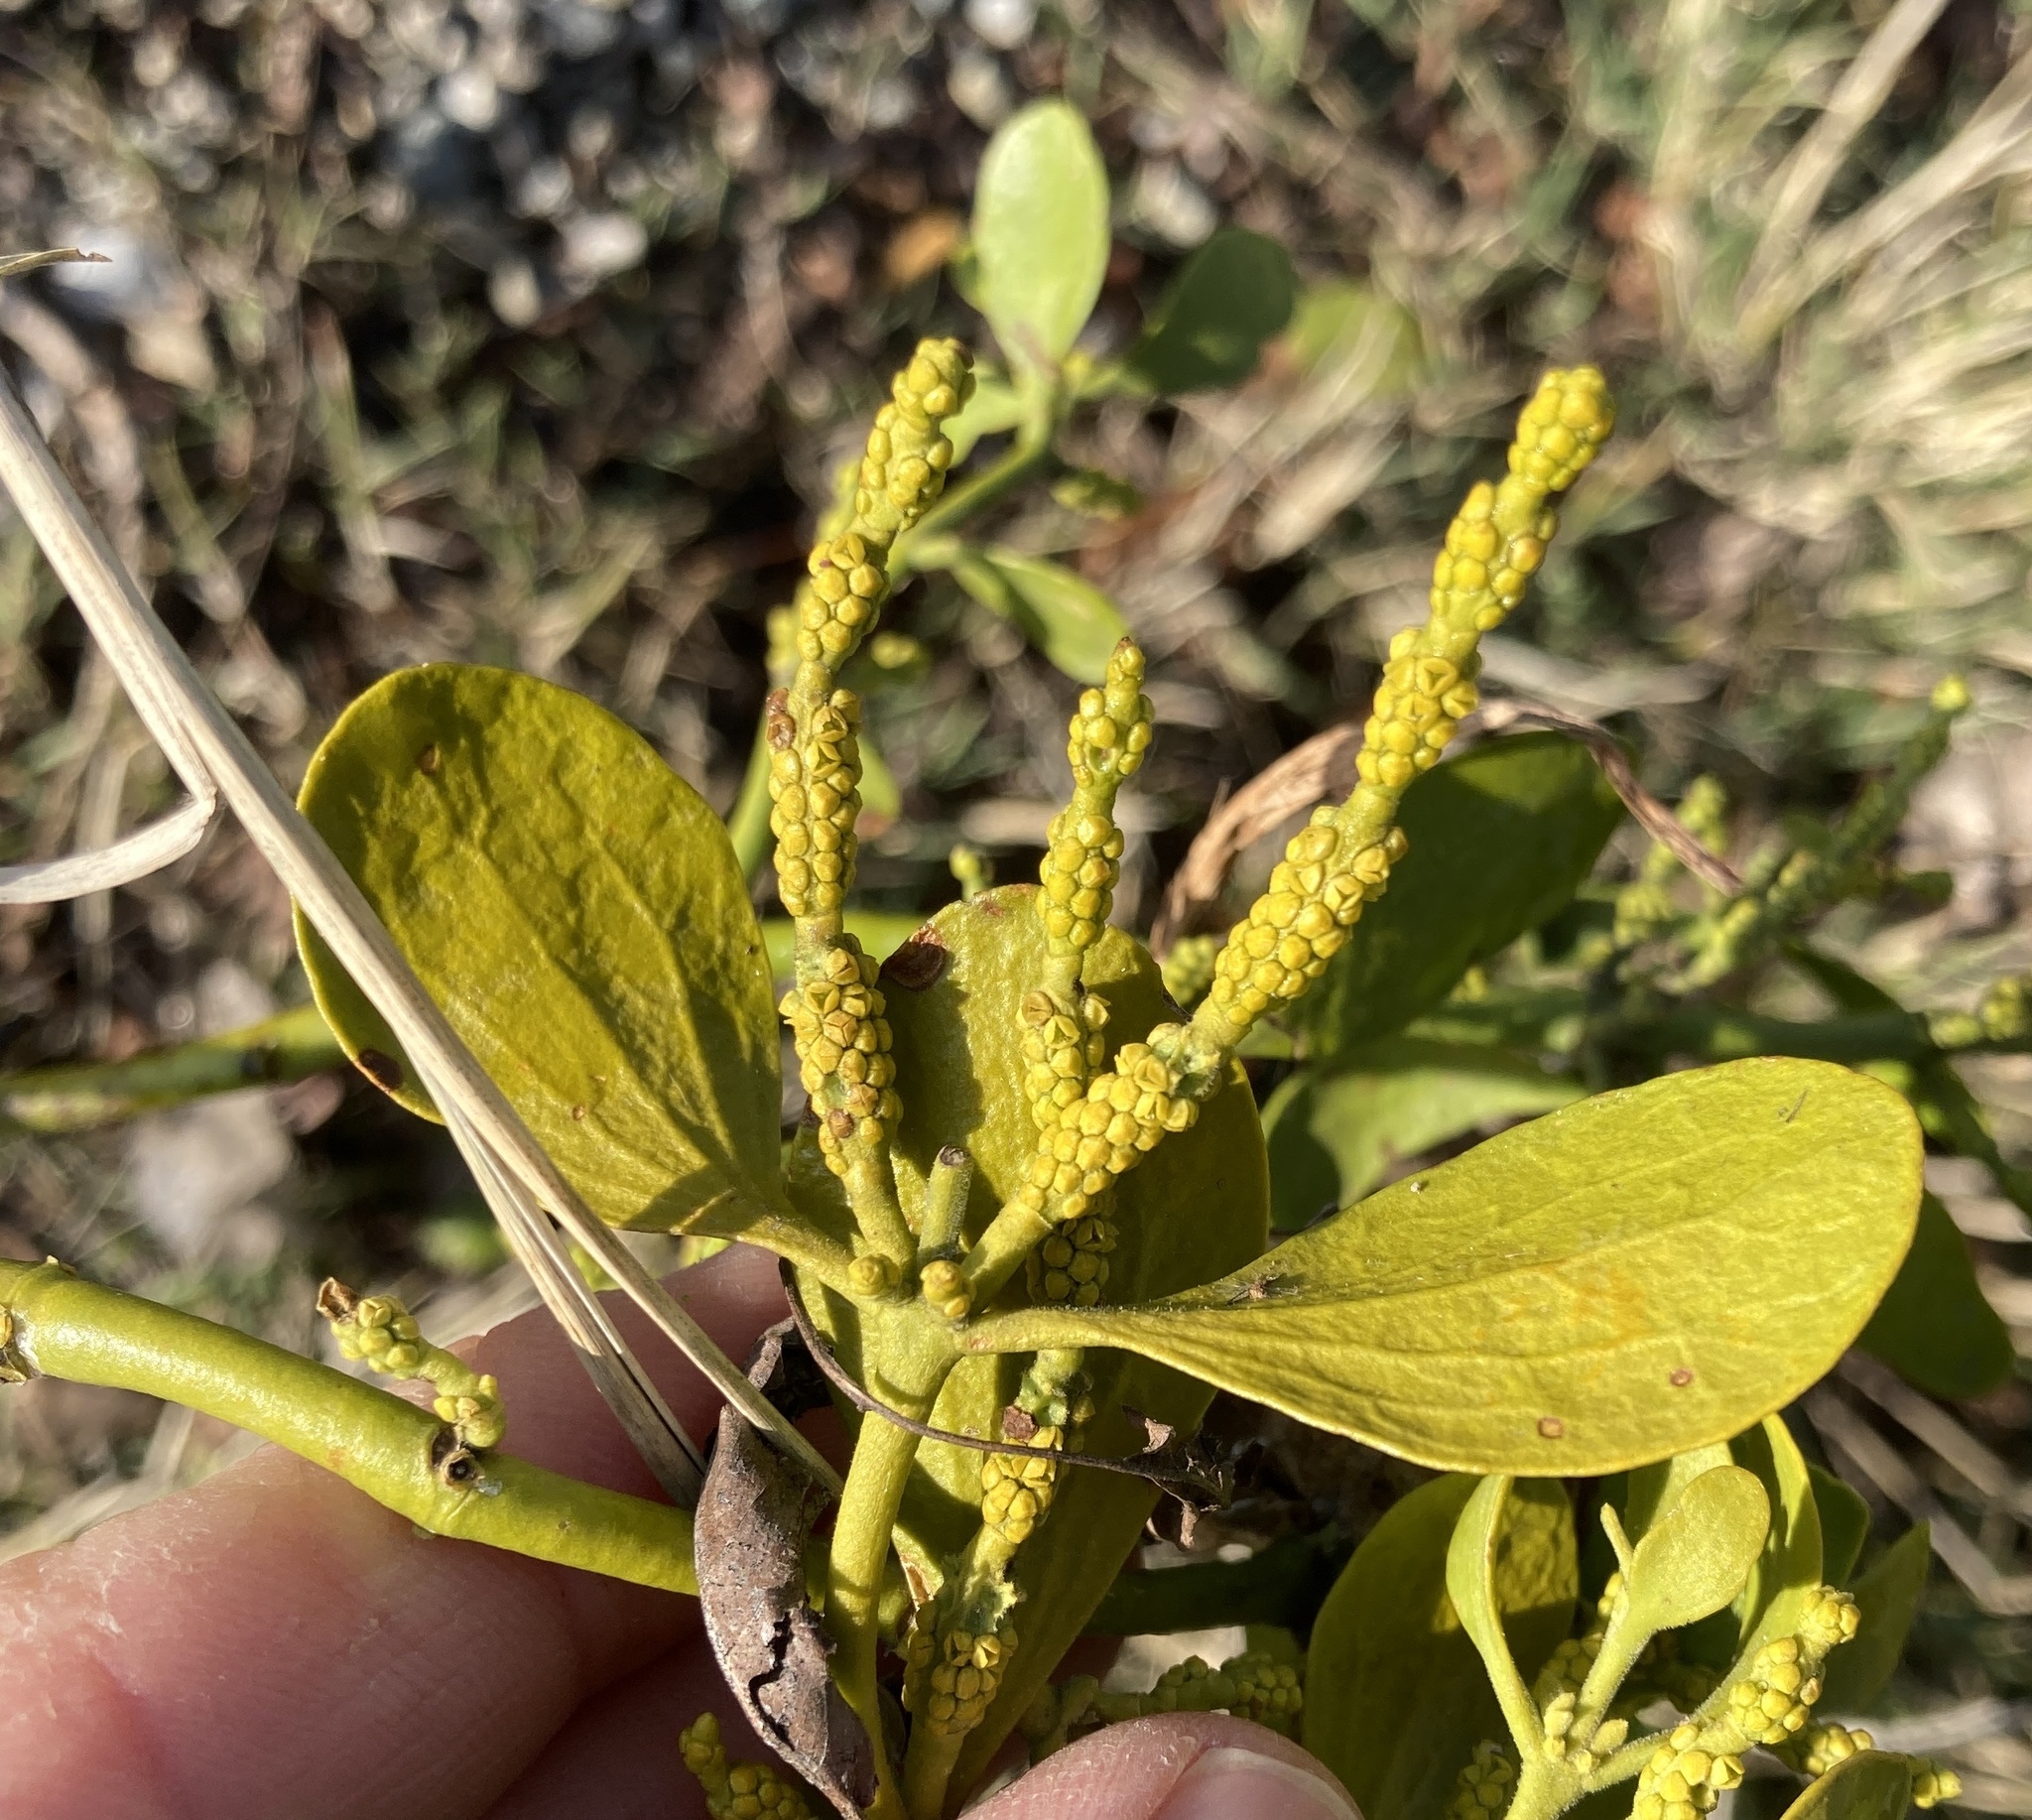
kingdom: Plantae
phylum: Tracheophyta
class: Magnoliopsida
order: Santalales
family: Viscaceae
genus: Phoradendron
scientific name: Phoradendron
